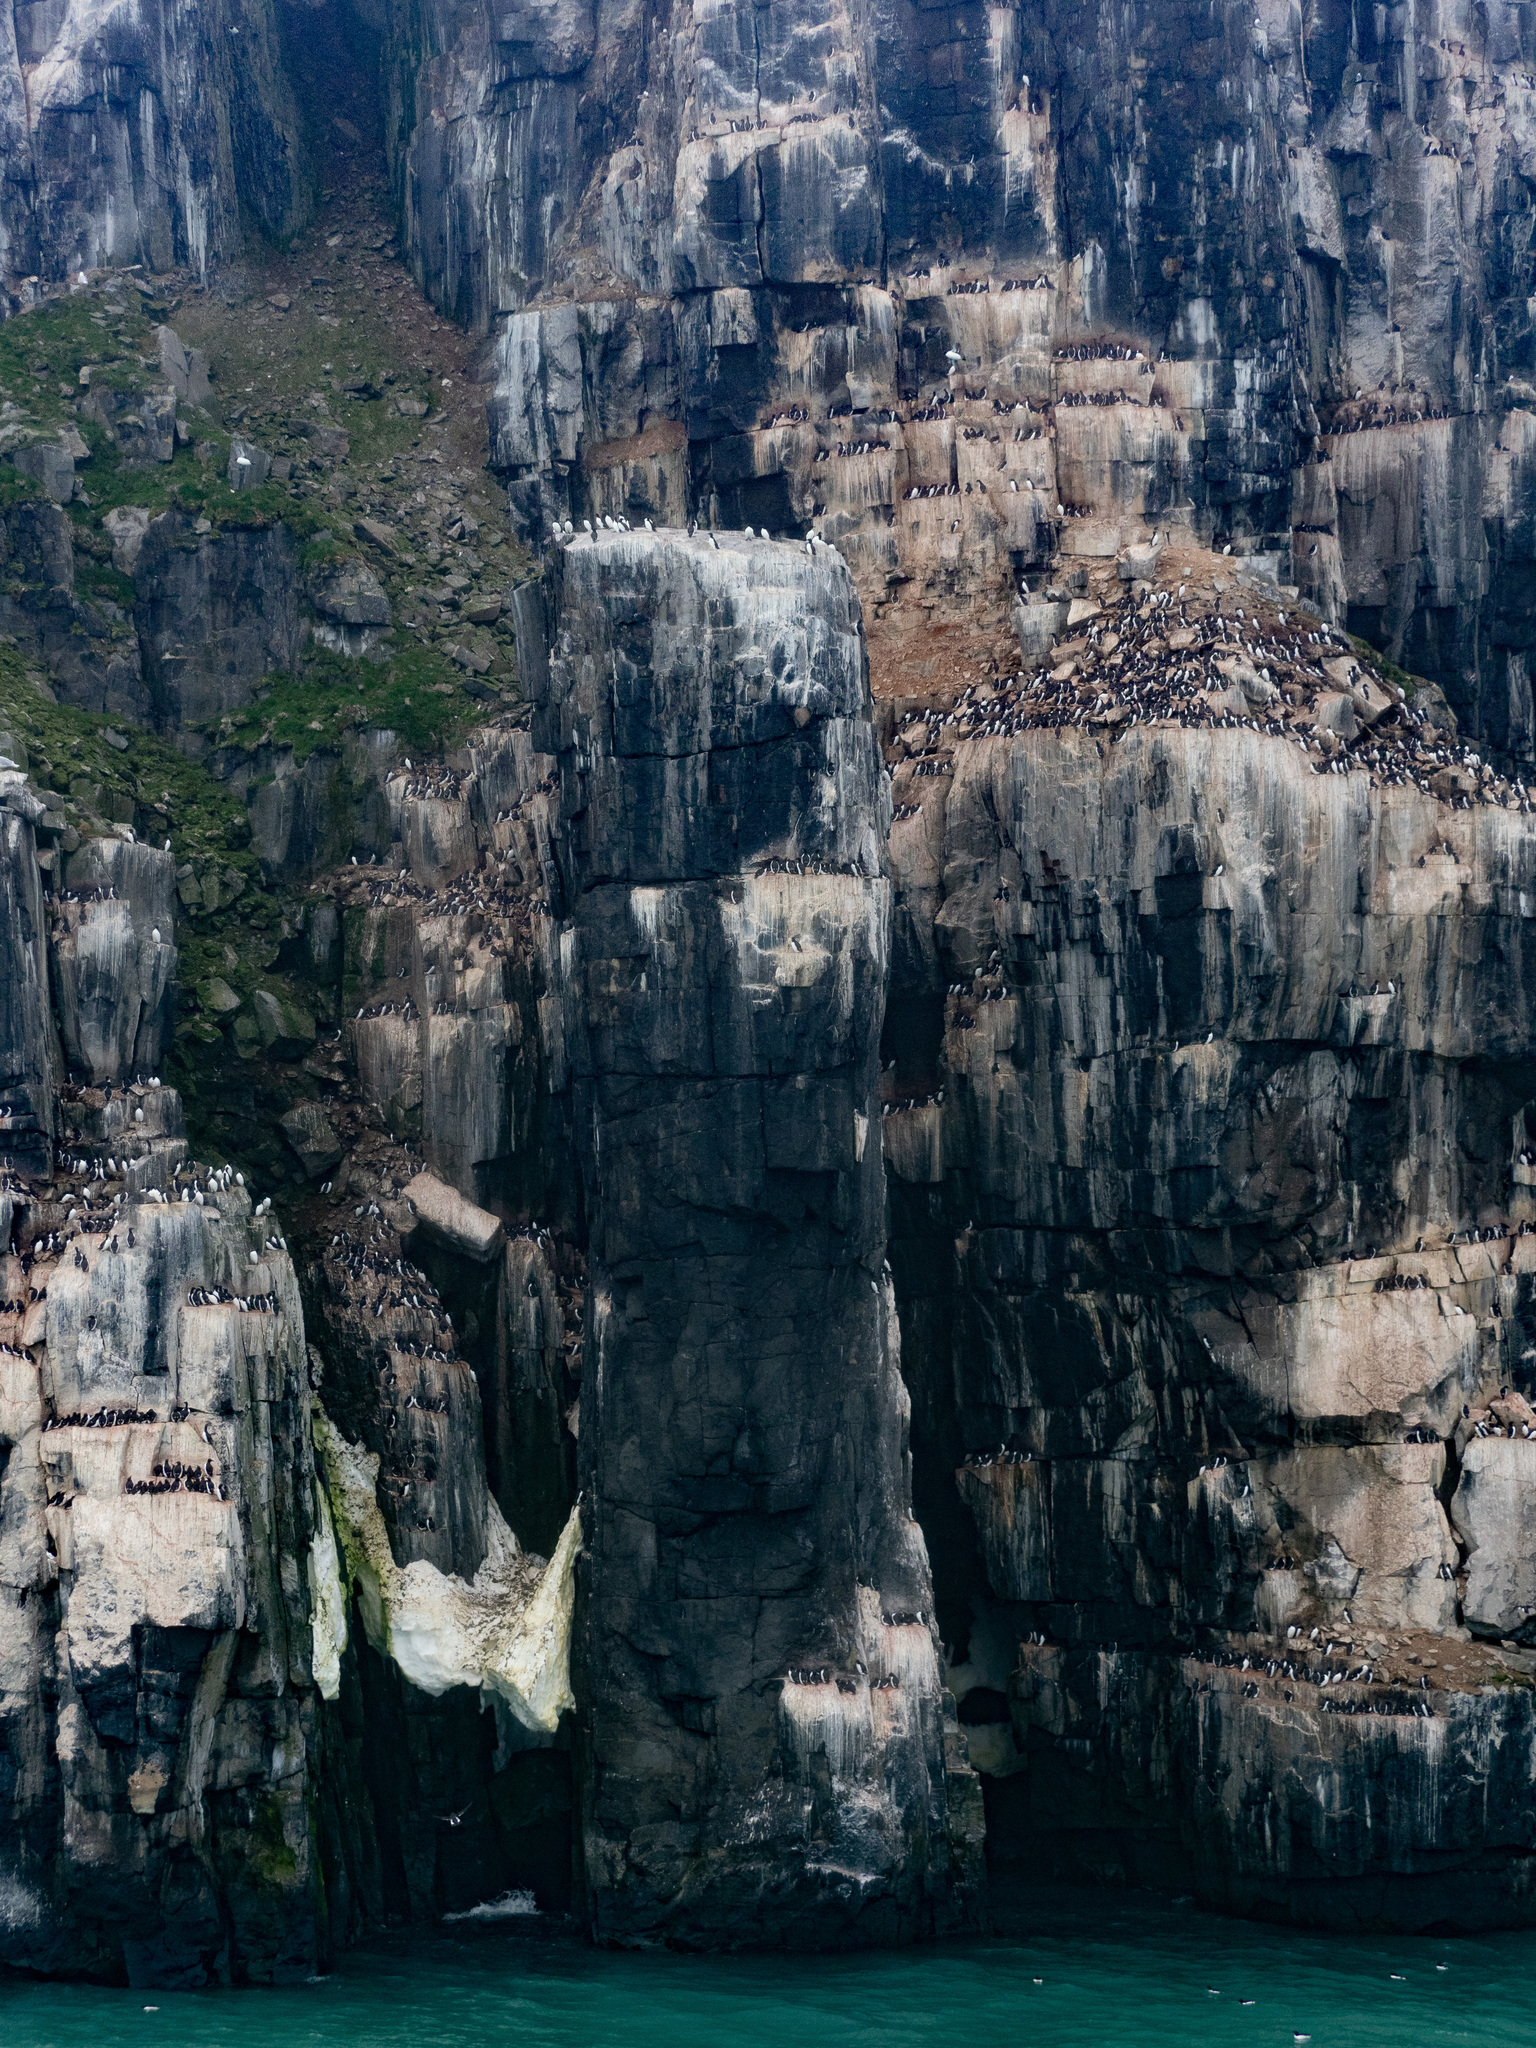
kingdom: Animalia
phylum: Chordata
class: Aves
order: Charadriiformes
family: Alcidae
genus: Uria
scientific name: Uria lomvia
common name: Thick-billed murre
